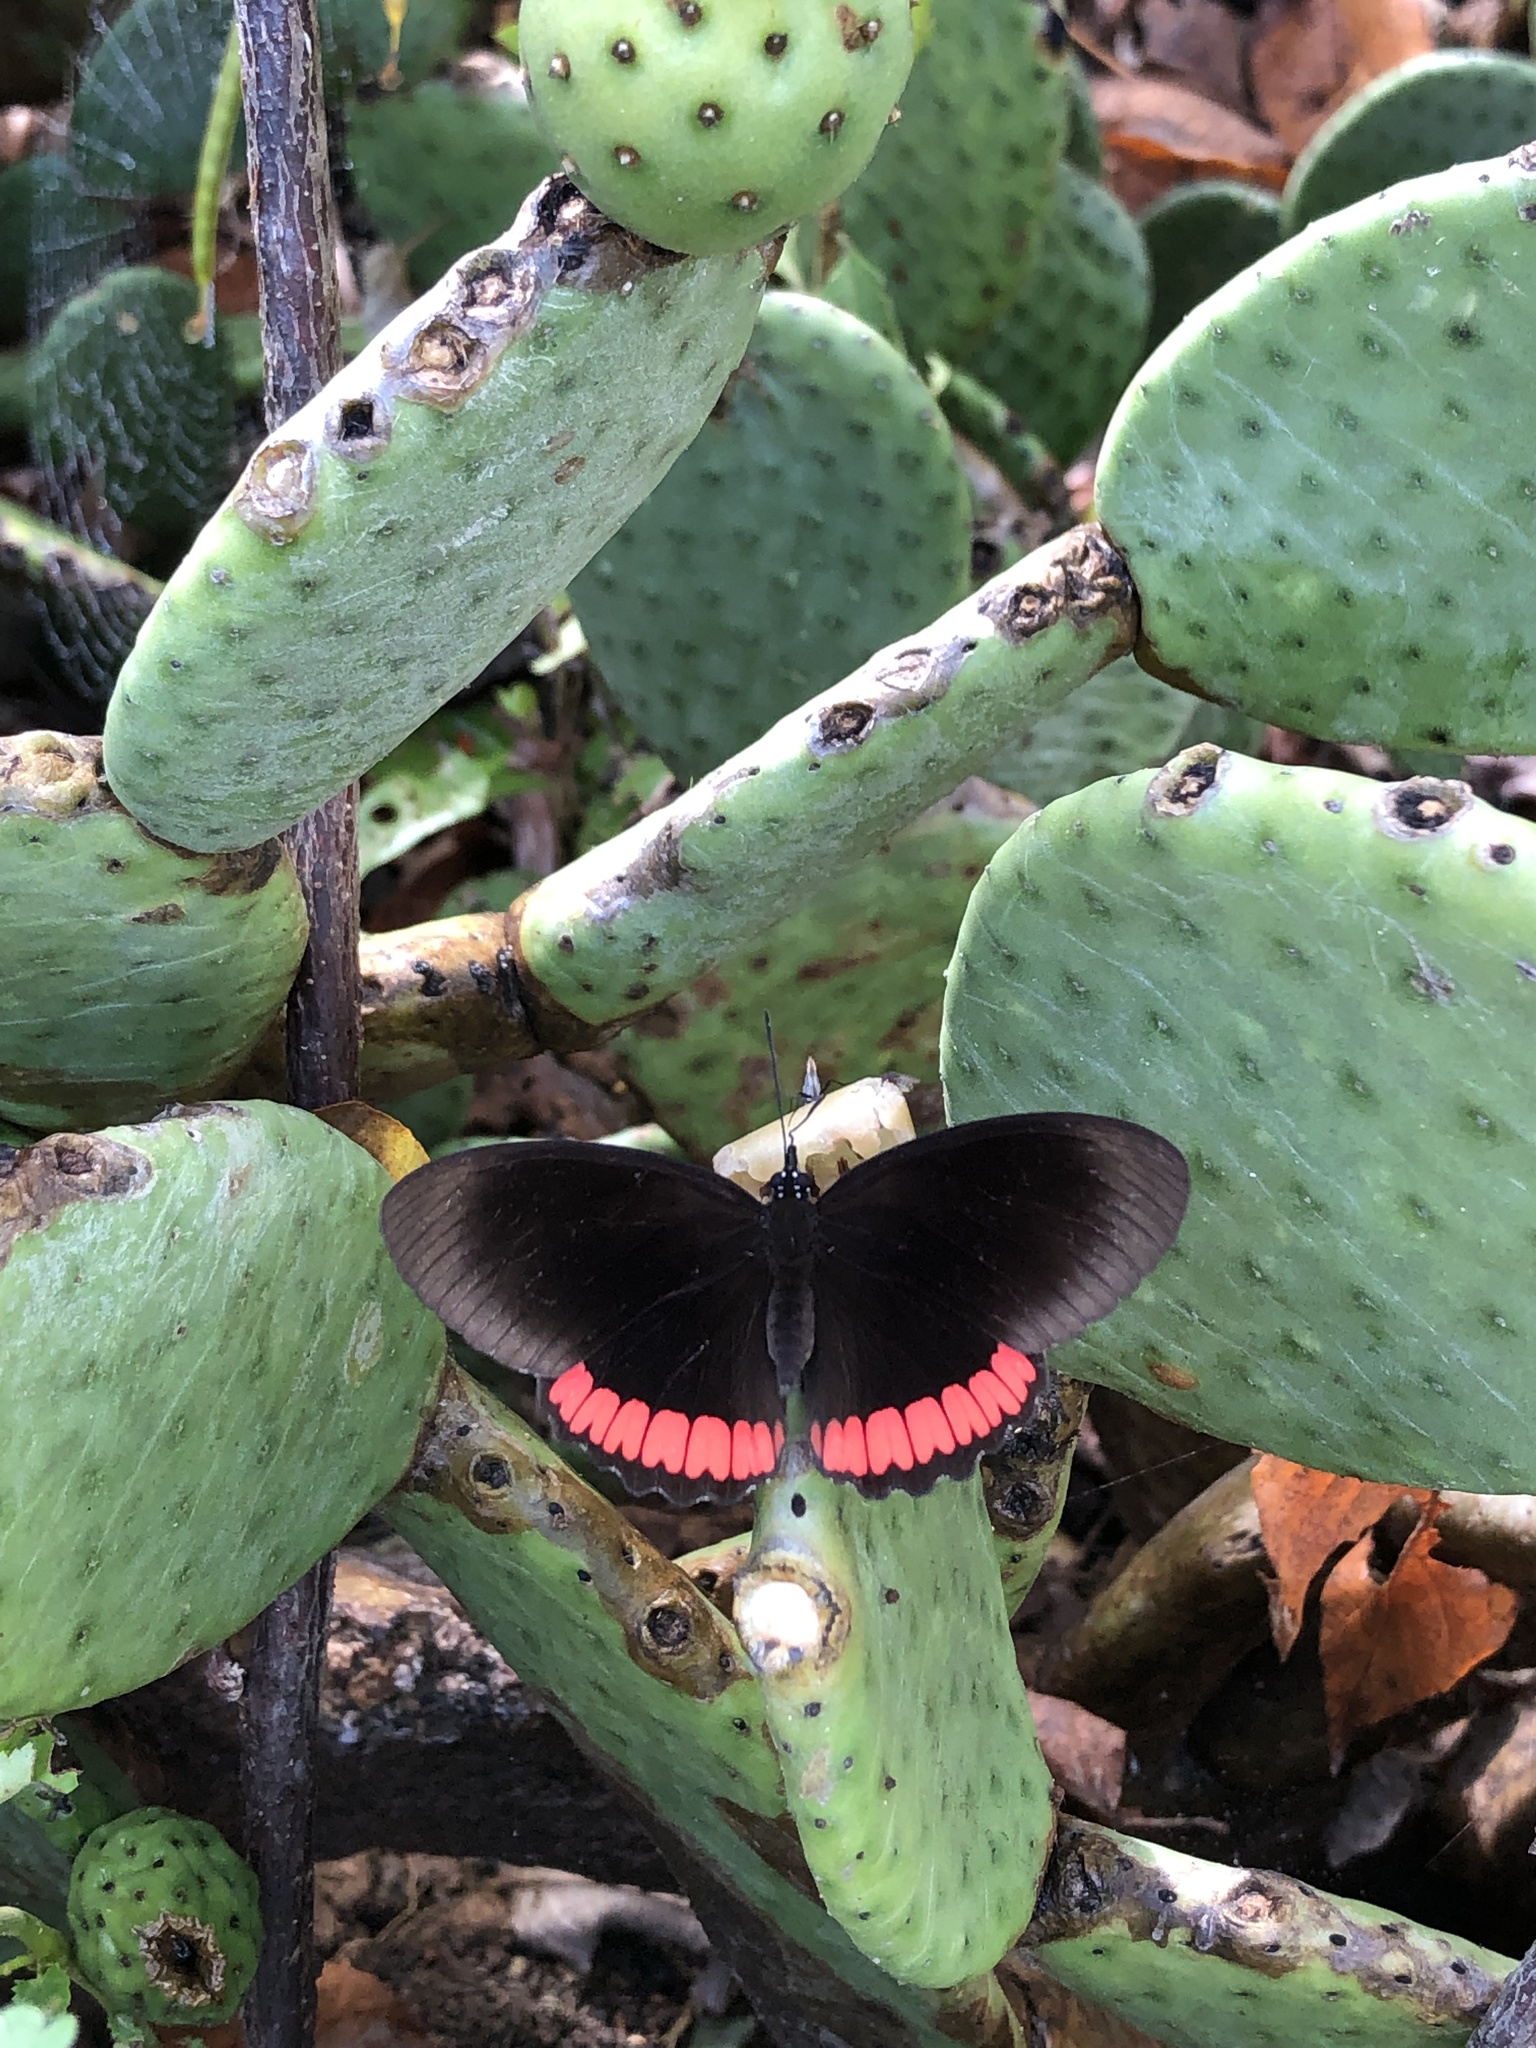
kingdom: Animalia
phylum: Arthropoda
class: Insecta
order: Lepidoptera
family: Sesiidae
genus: Sesia
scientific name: Sesia Biblis hyperia
